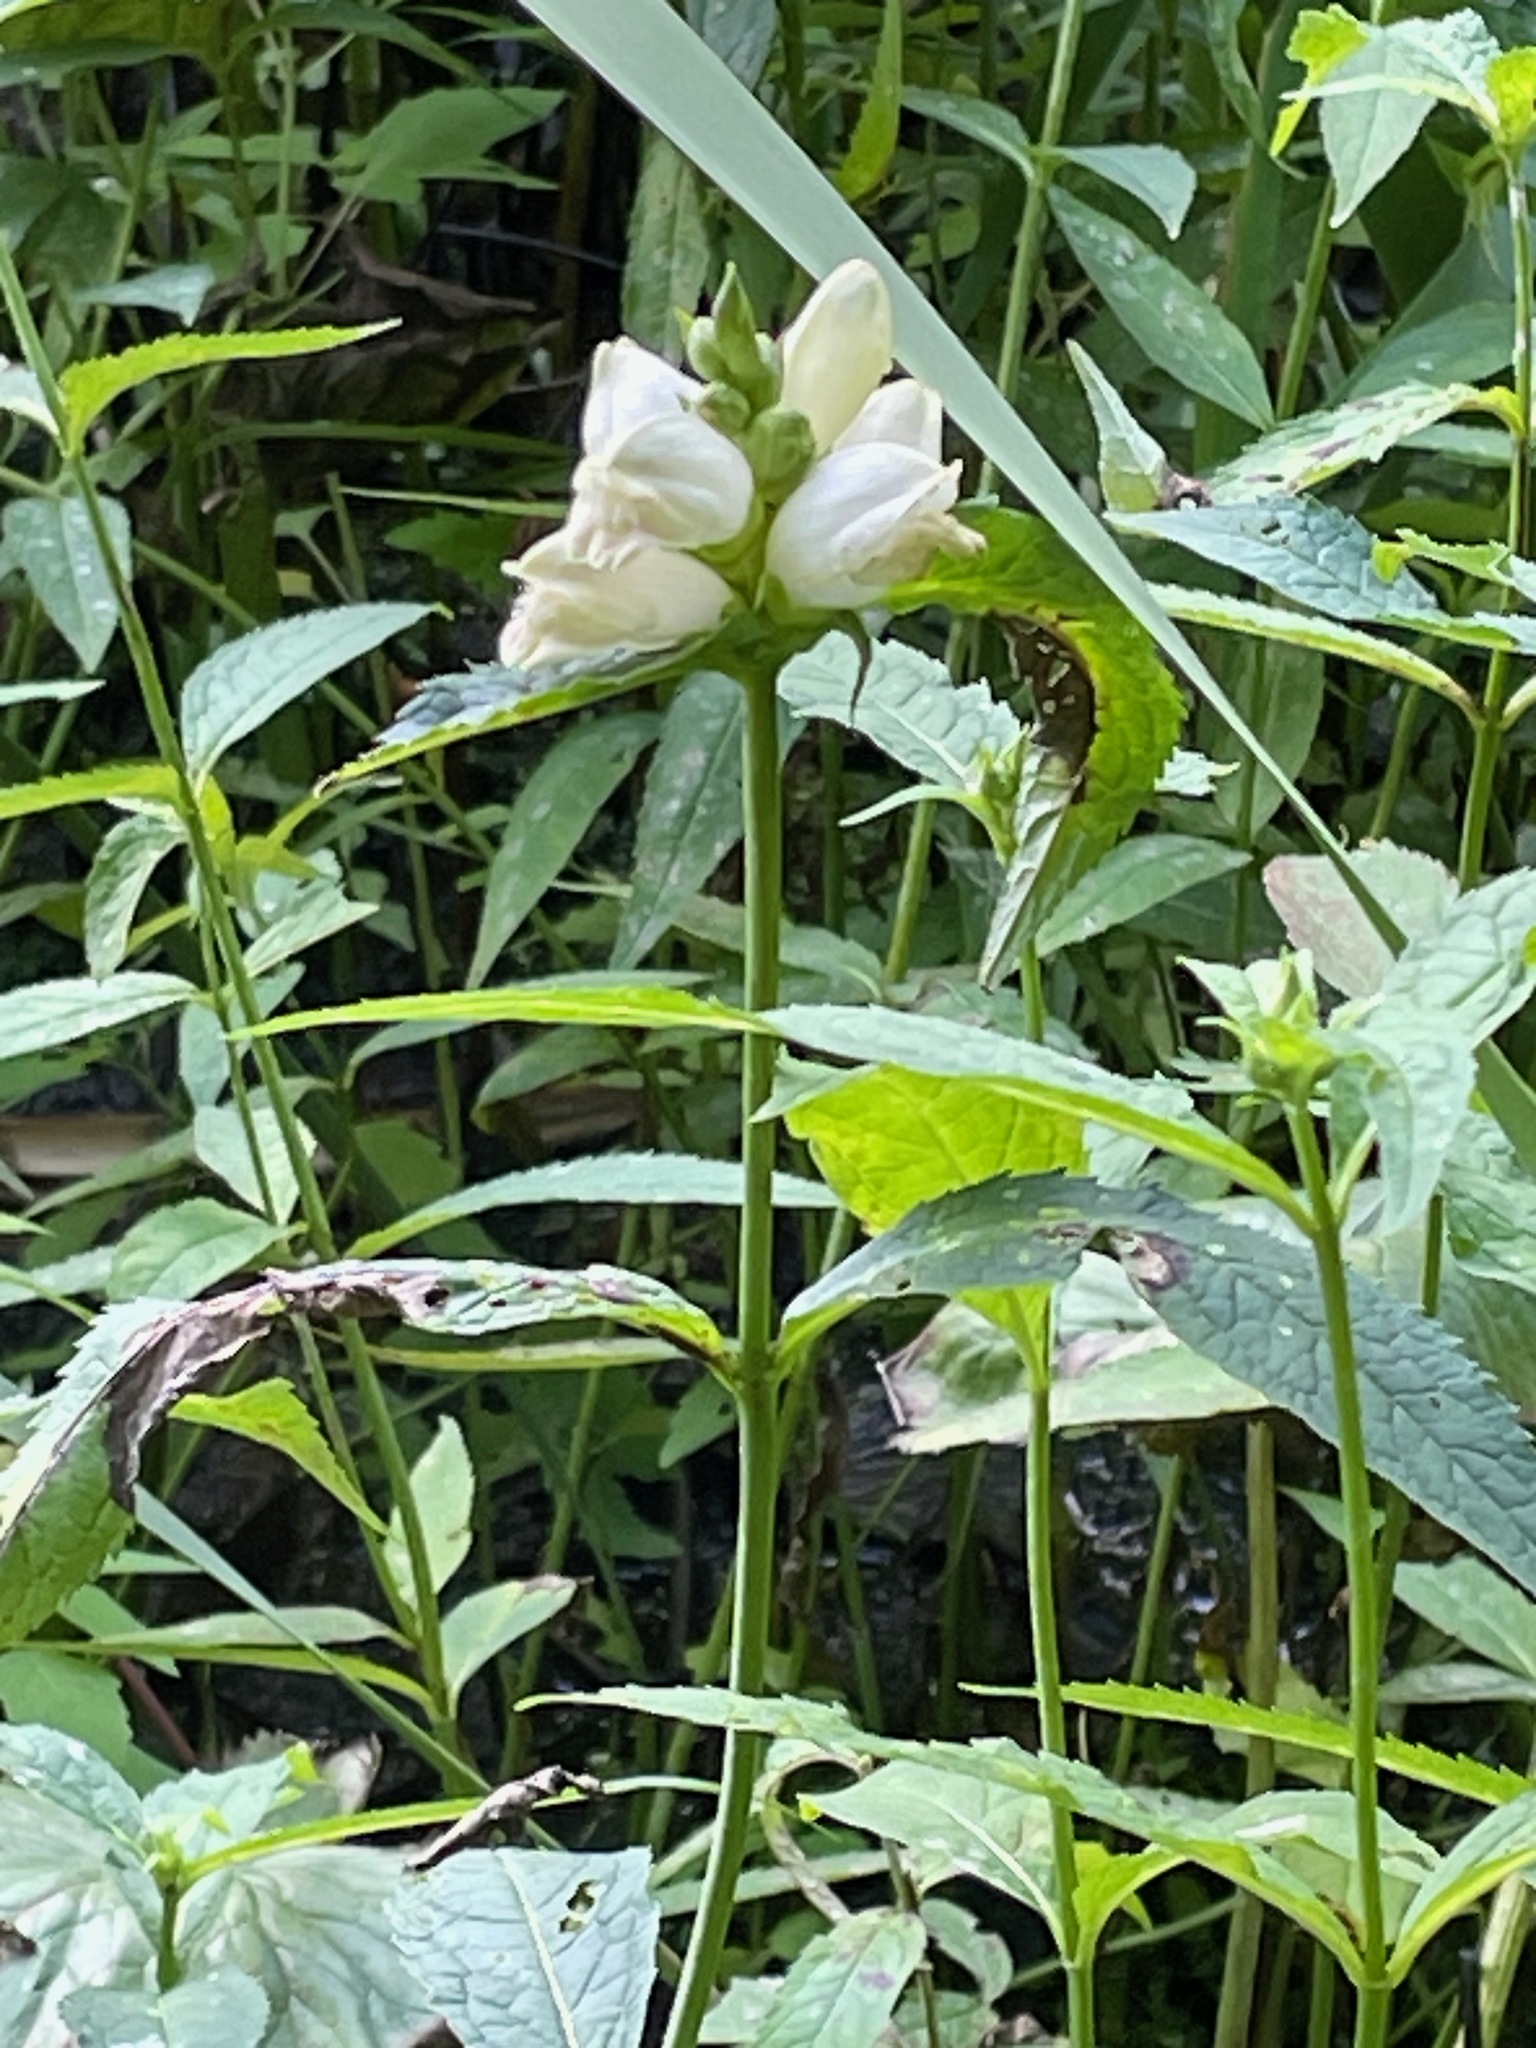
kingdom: Plantae
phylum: Tracheophyta
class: Magnoliopsida
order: Lamiales
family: Plantaginaceae
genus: Chelone
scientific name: Chelone glabra
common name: Snakehead
